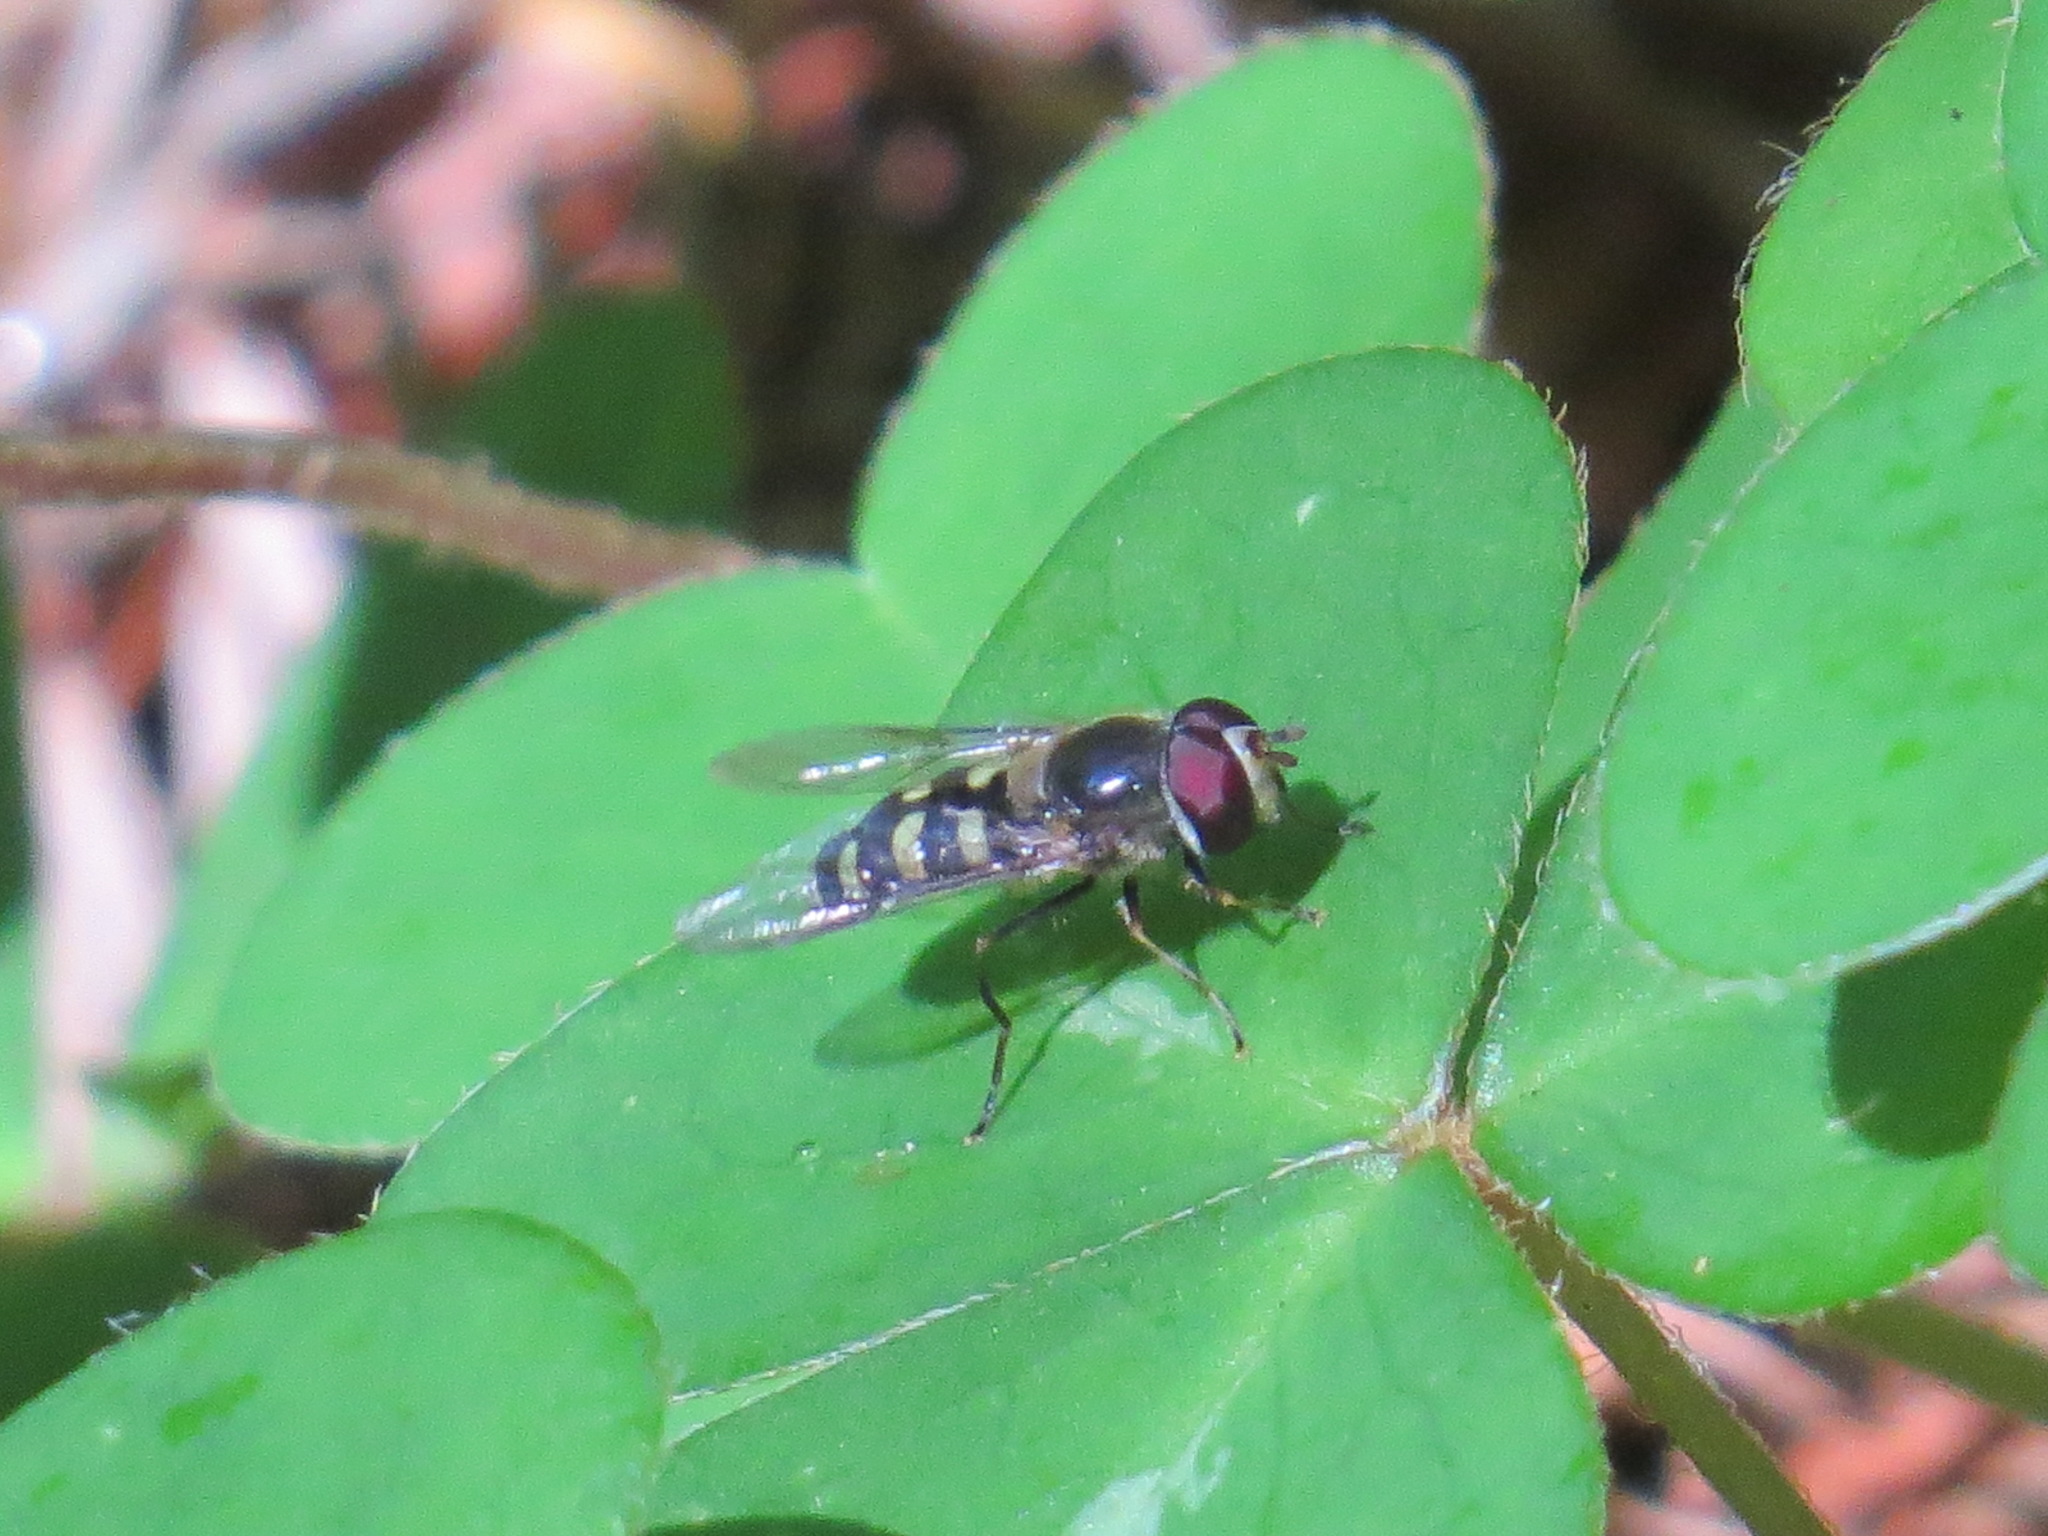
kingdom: Animalia
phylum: Arthropoda
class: Insecta
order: Diptera
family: Syrphidae
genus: Lapposyrphus
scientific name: Lapposyrphus lapponicus
